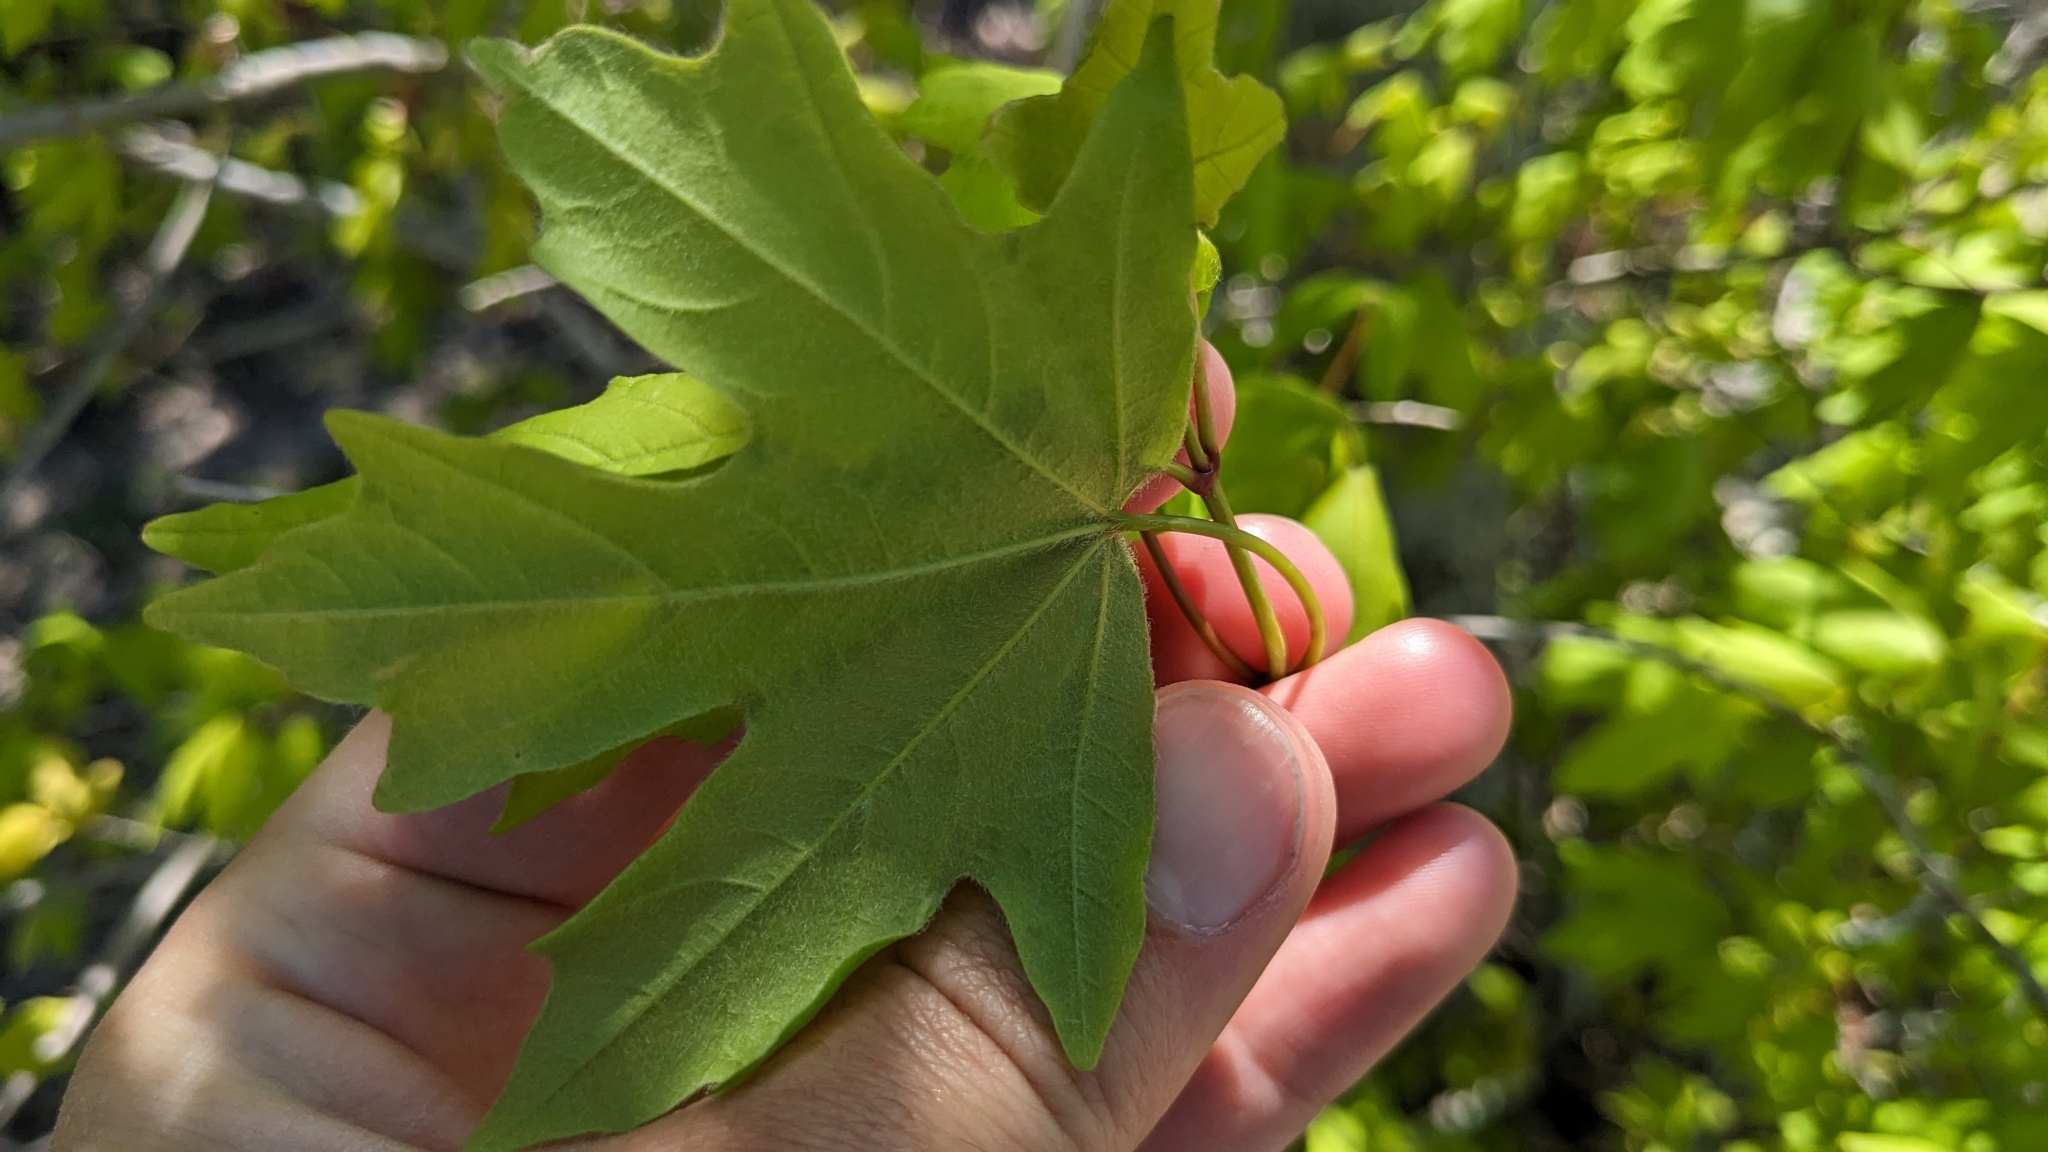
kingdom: Plantae
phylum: Tracheophyta
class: Magnoliopsida
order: Sapindales
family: Sapindaceae
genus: Acer
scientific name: Acer grandidentatum
